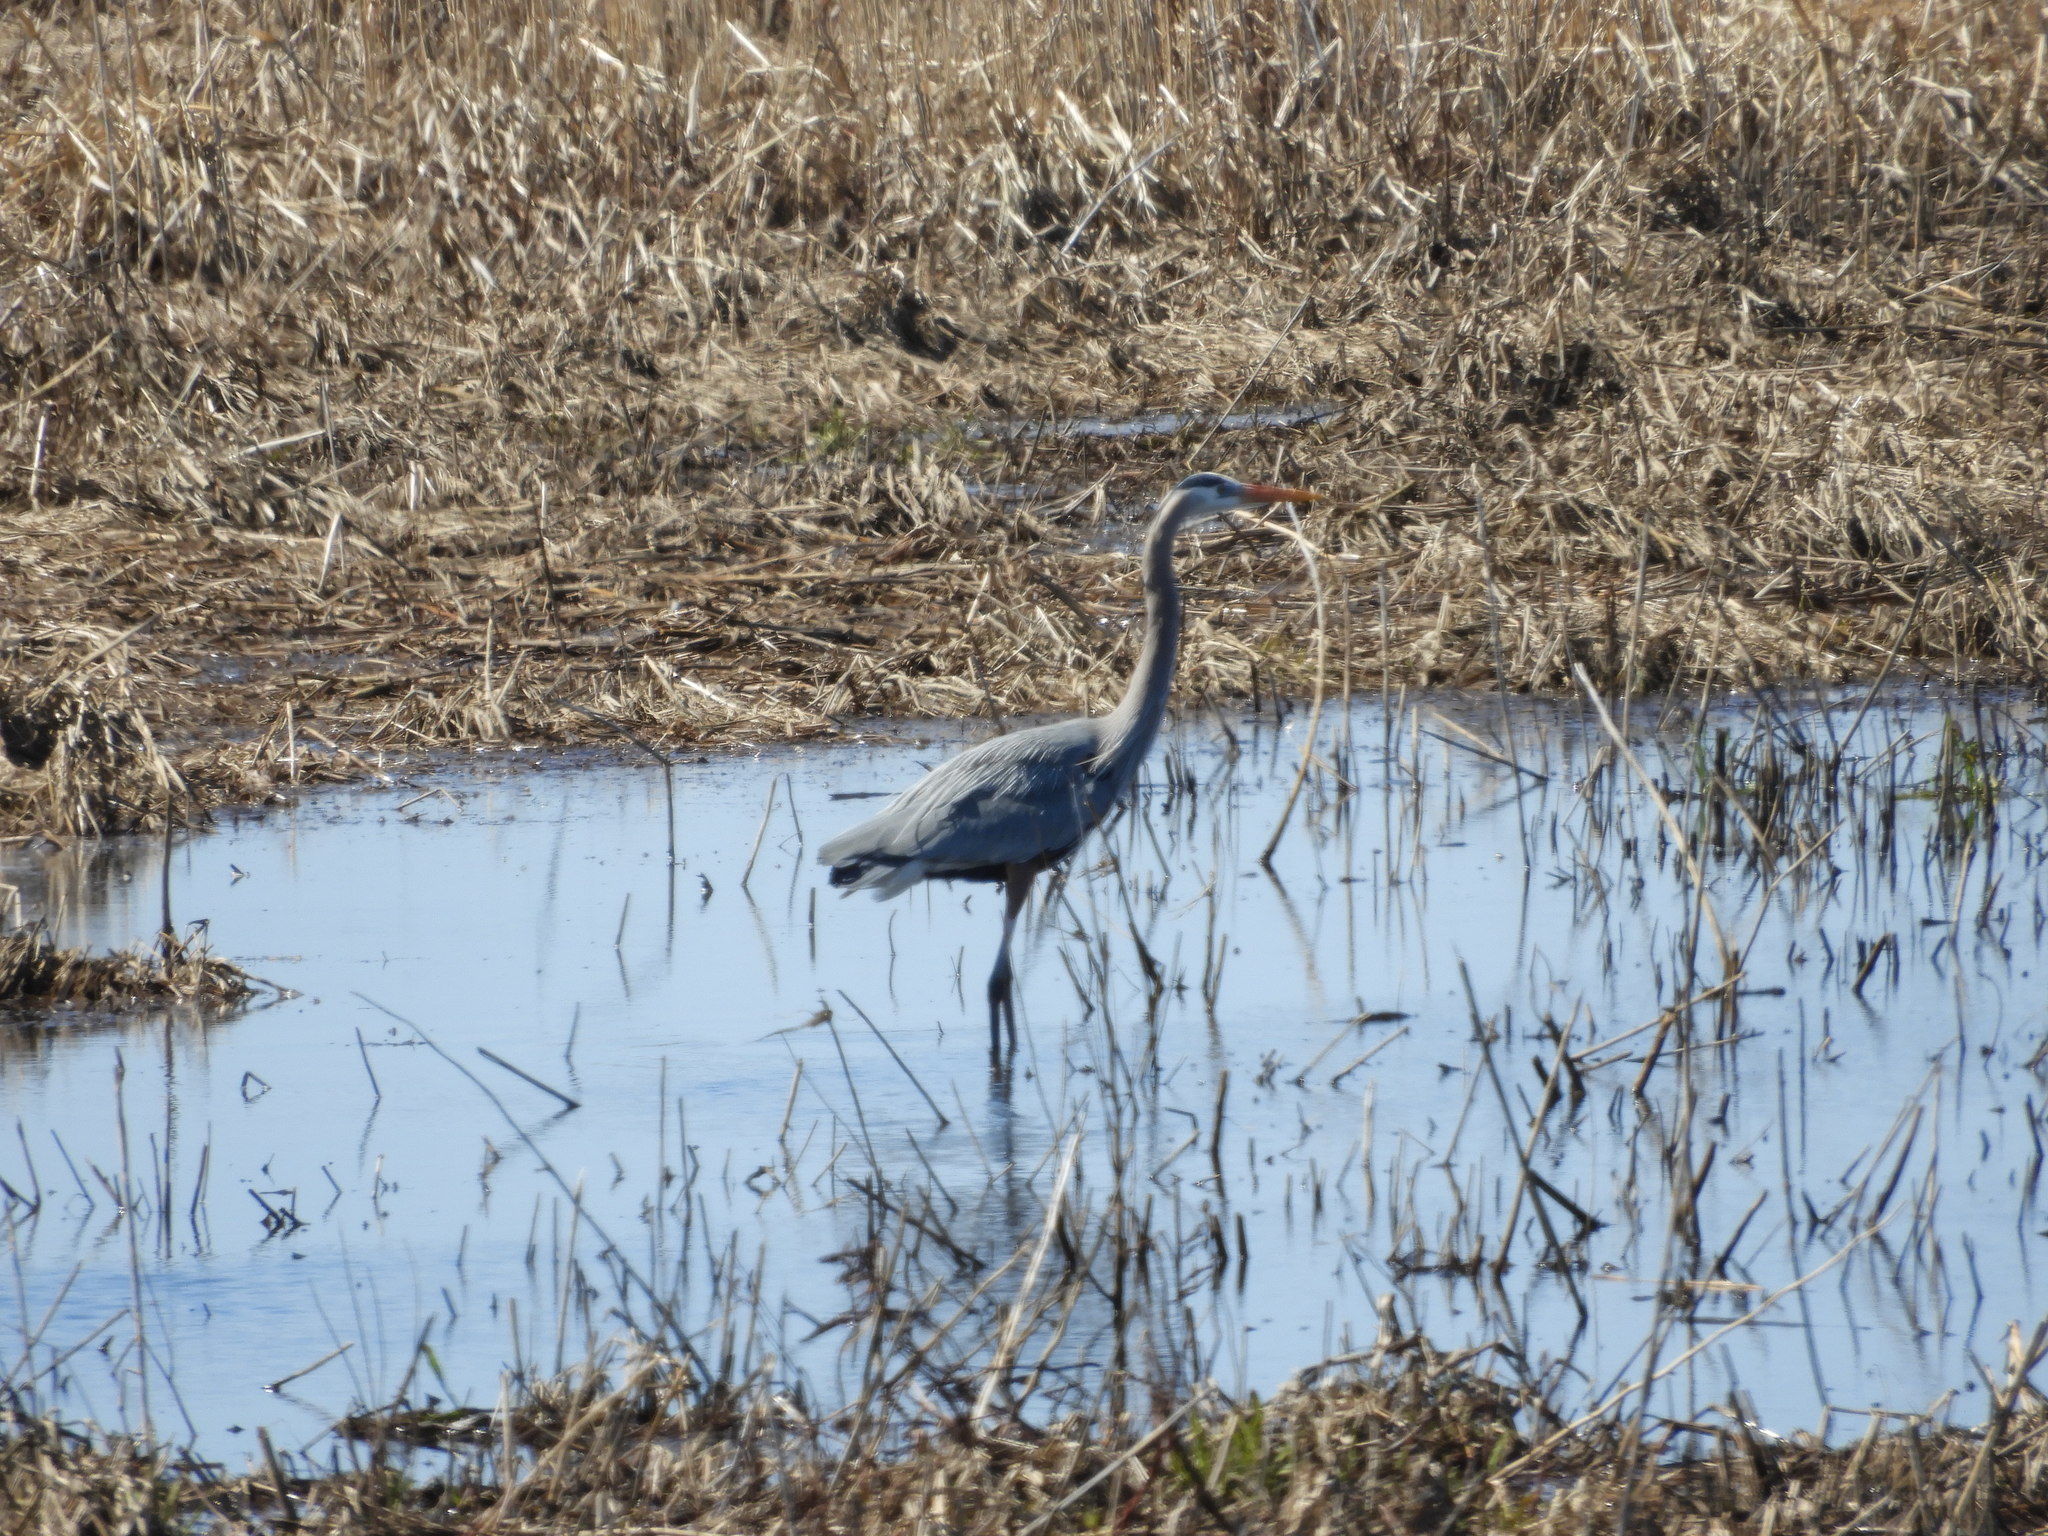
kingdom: Animalia
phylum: Chordata
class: Aves
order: Pelecaniformes
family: Ardeidae
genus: Ardea
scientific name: Ardea herodias
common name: Great blue heron
